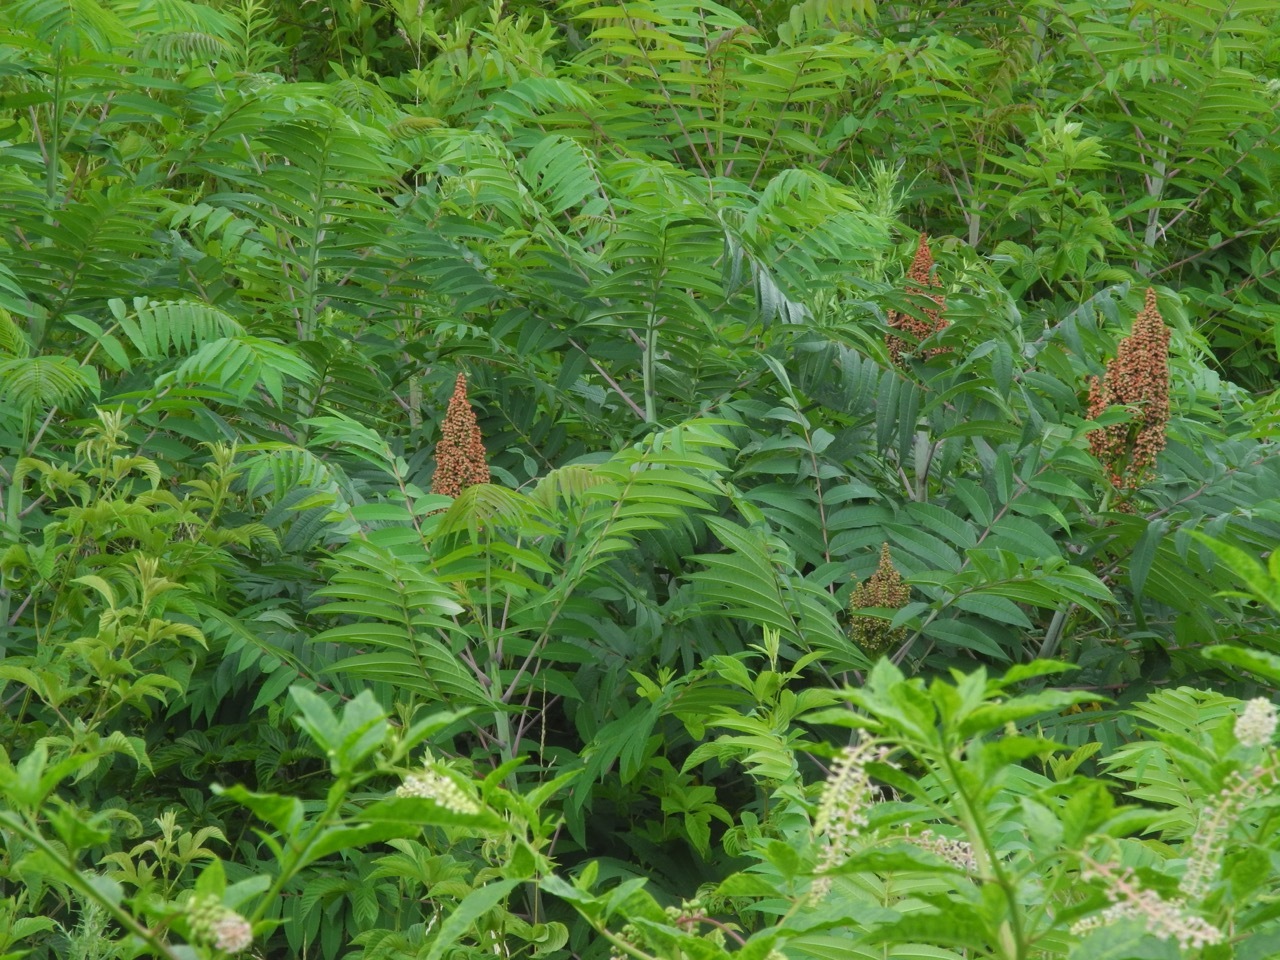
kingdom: Plantae
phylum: Tracheophyta
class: Magnoliopsida
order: Sapindales
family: Anacardiaceae
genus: Rhus
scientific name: Rhus glabra
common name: Scarlet sumac
